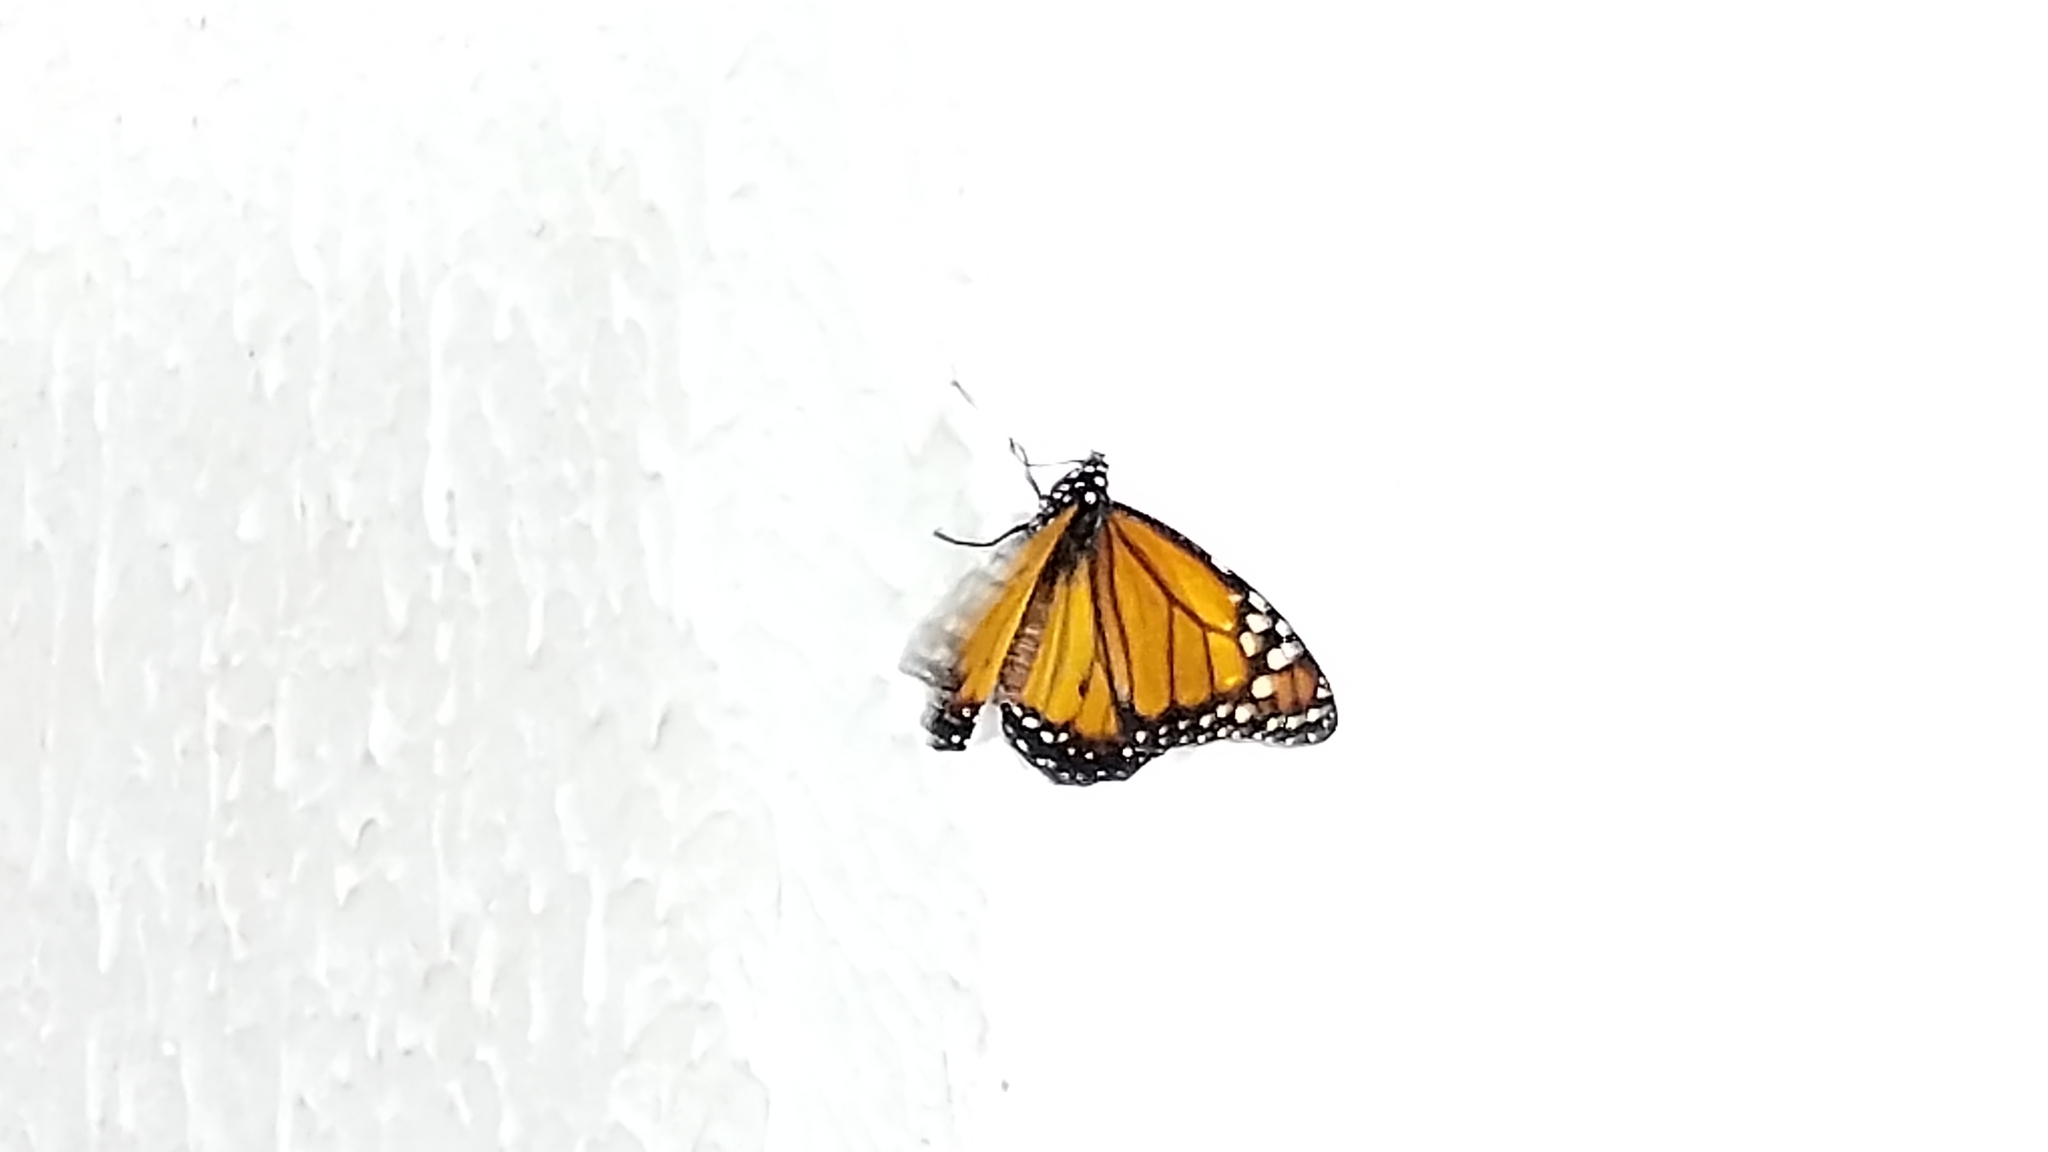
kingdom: Animalia
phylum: Arthropoda
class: Insecta
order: Lepidoptera
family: Nymphalidae
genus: Danaus
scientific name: Danaus erippus
